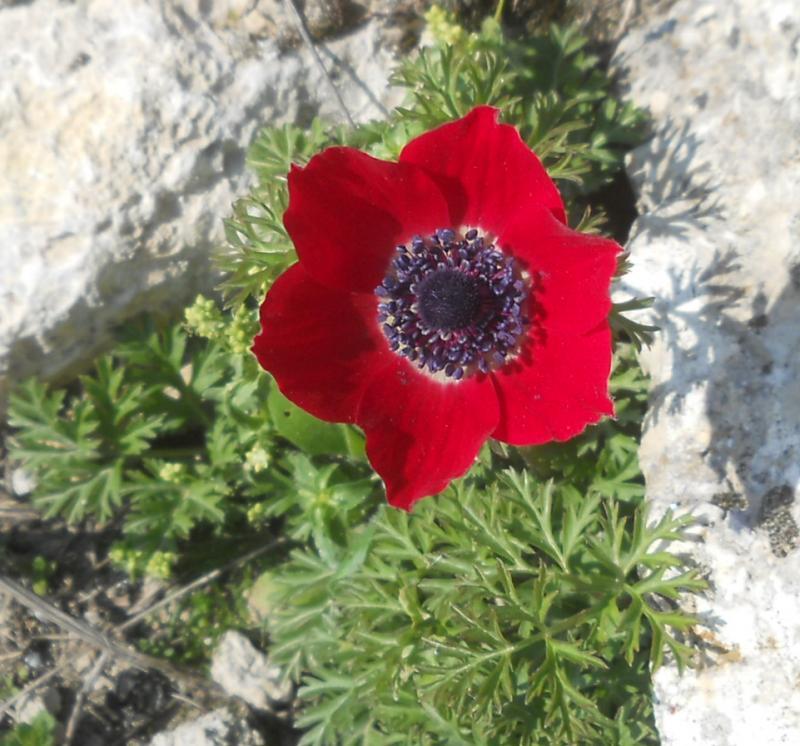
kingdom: Plantae
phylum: Tracheophyta
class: Magnoliopsida
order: Ranunculales
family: Ranunculaceae
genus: Anemone
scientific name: Anemone coronaria
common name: Poppy anemone
